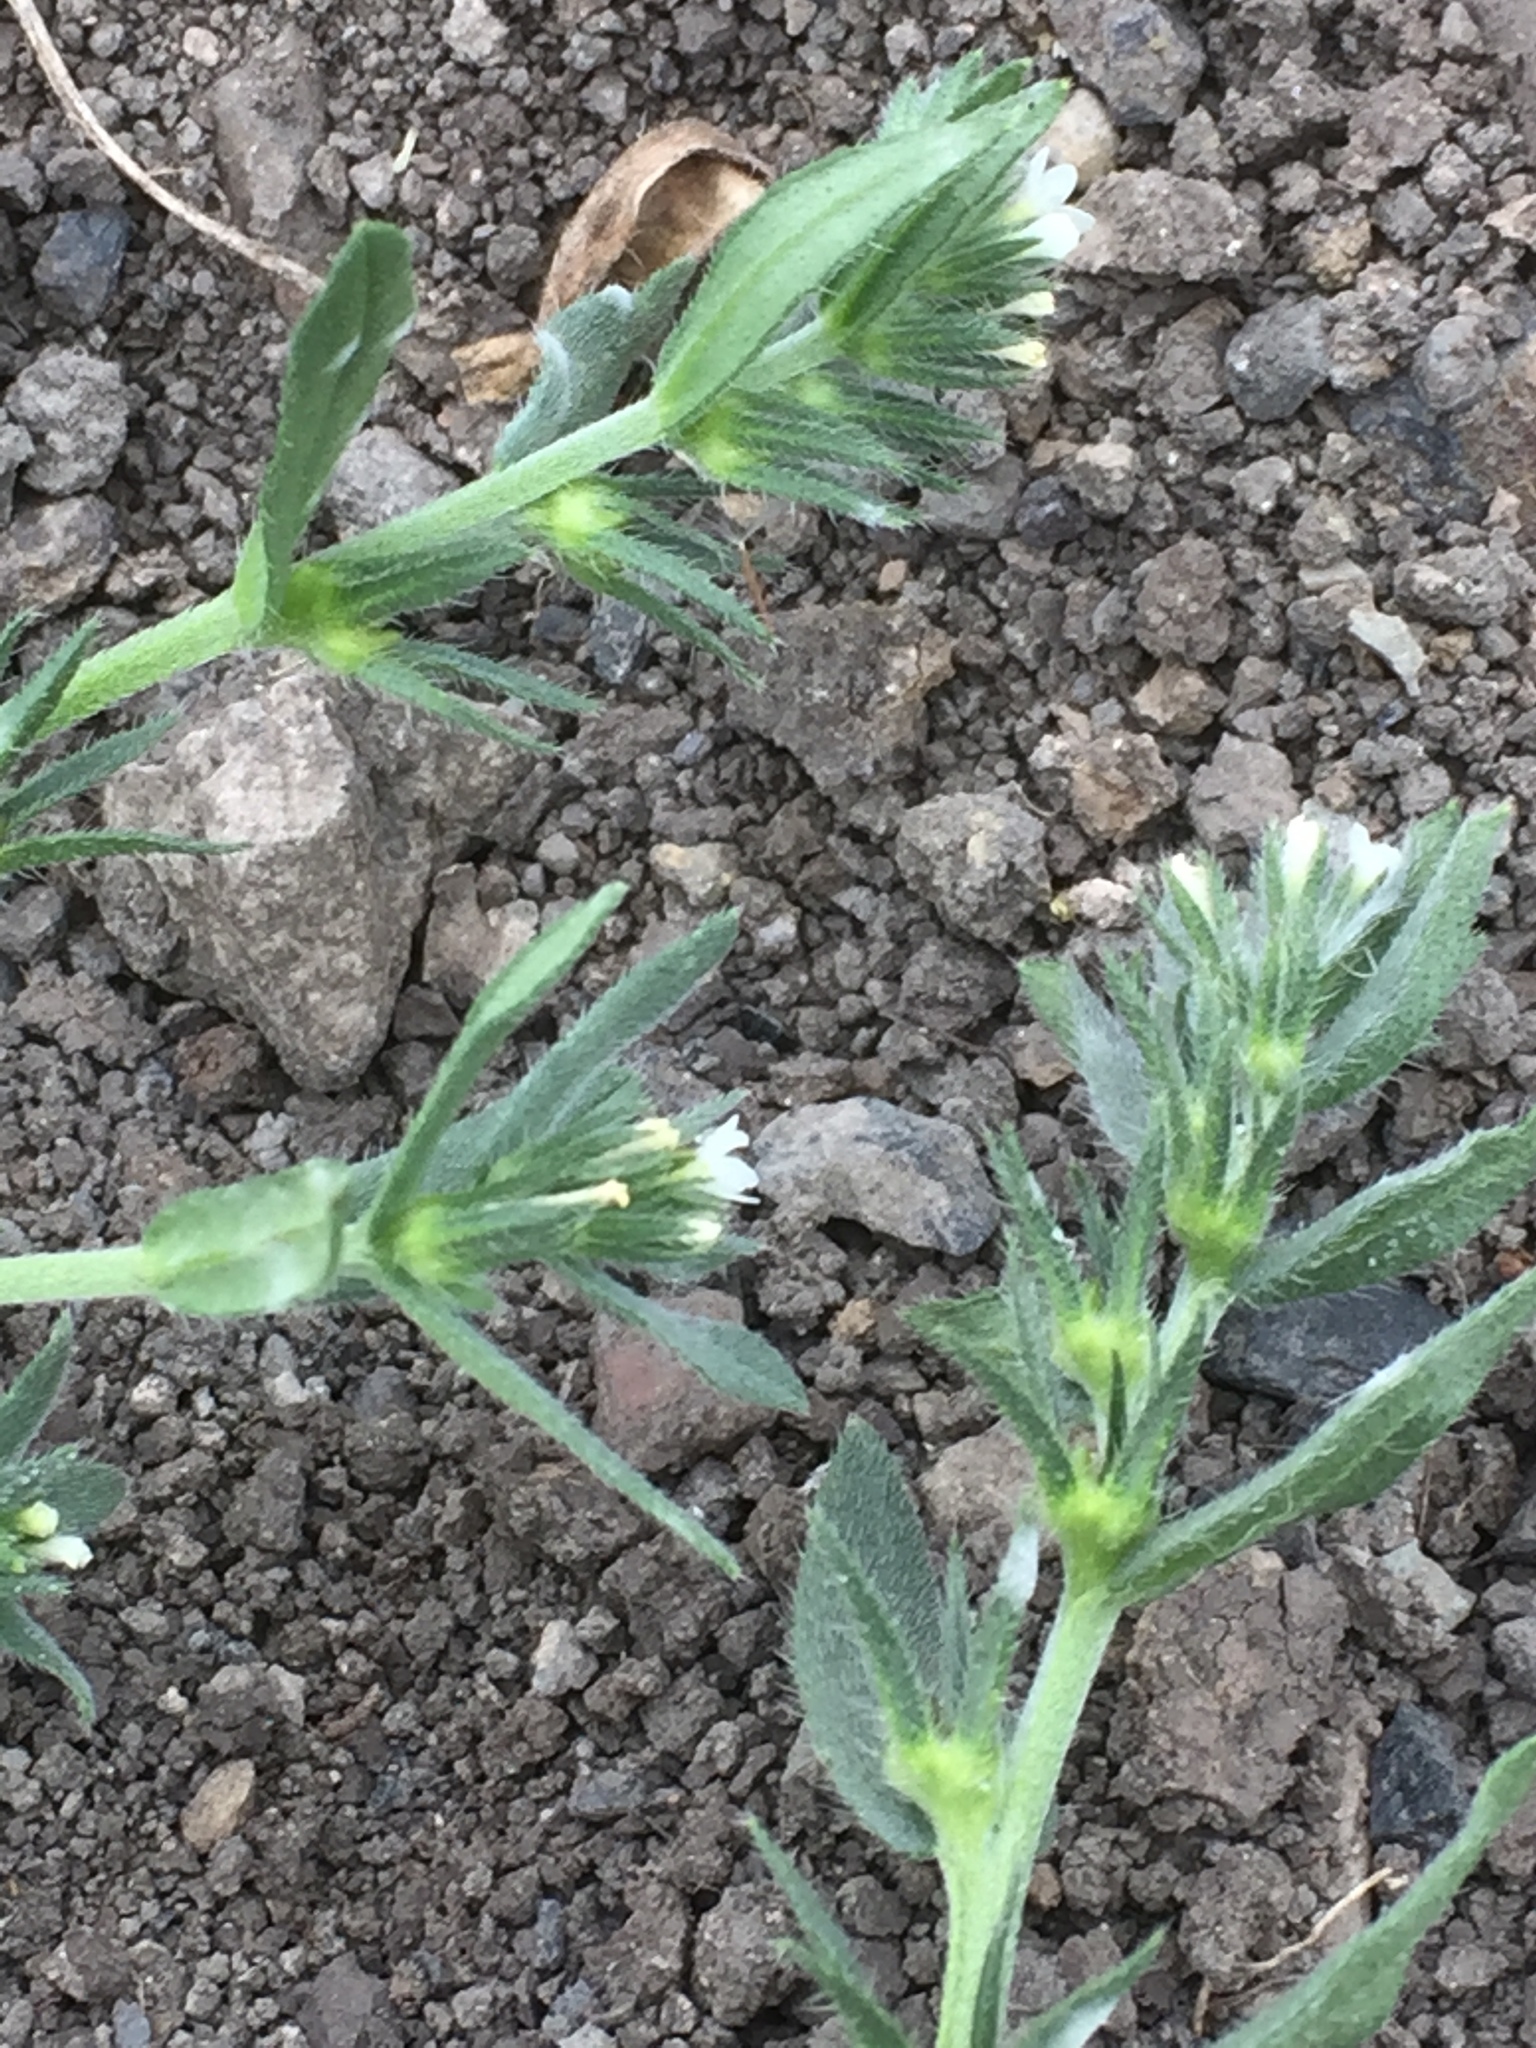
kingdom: Plantae
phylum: Tracheophyta
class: Magnoliopsida
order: Boraginales
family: Boraginaceae
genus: Aegonychon
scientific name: Aegonychon purpurocaeruleum
